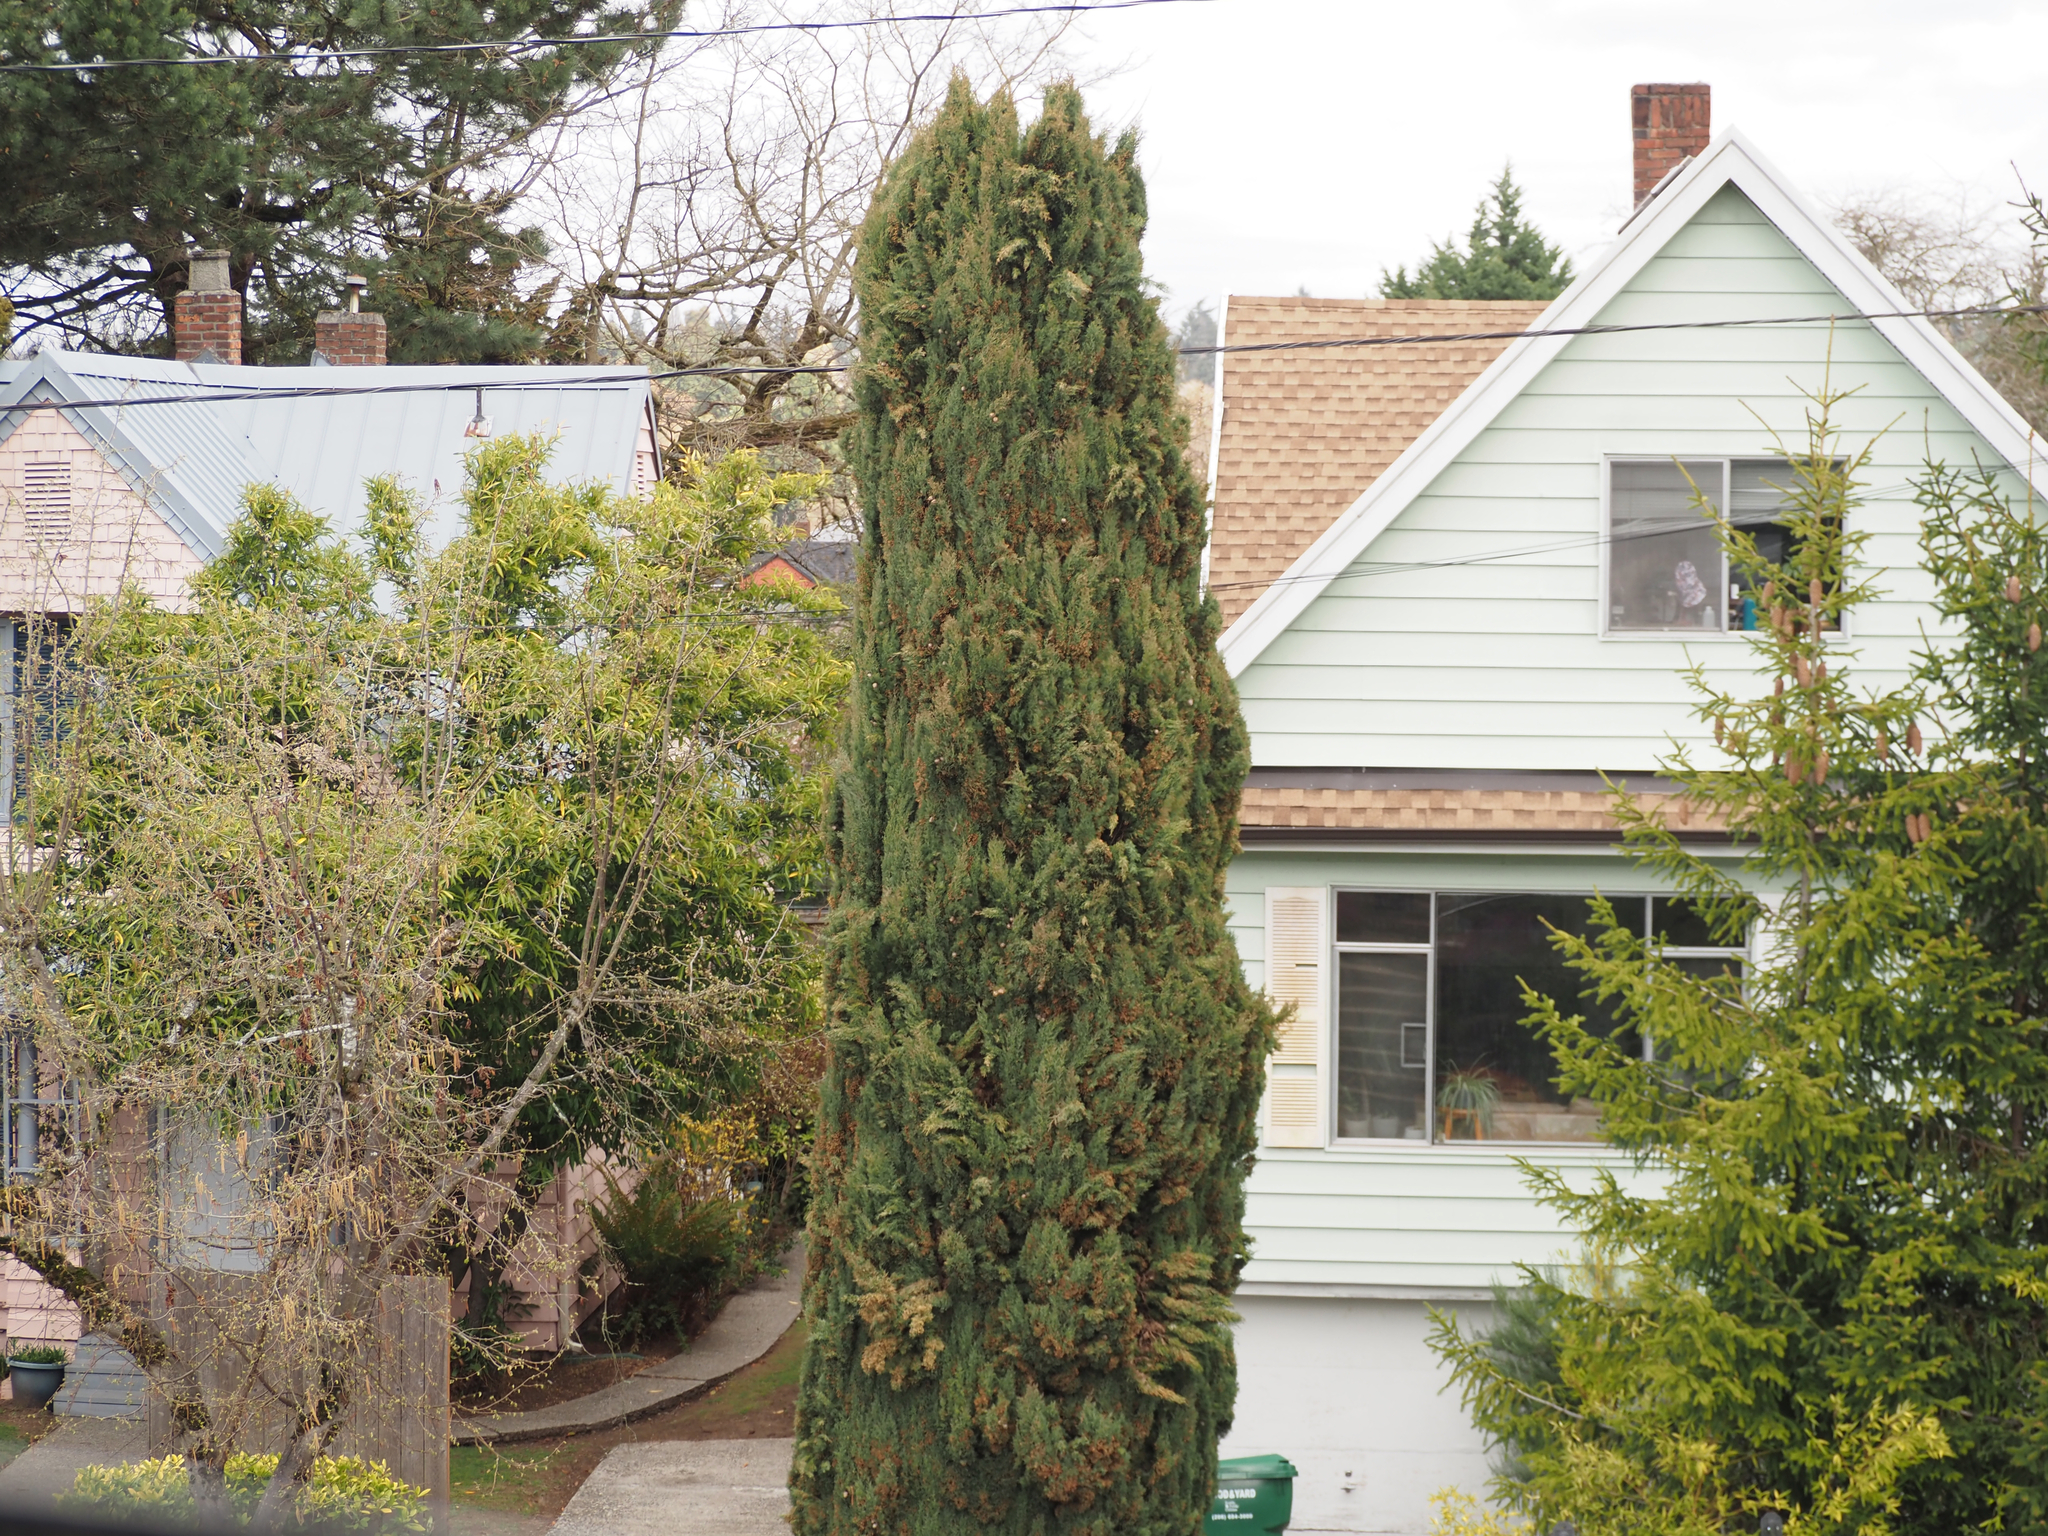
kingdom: Animalia
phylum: Chordata
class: Mammalia
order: Carnivora
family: Procyonidae
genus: Procyon
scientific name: Procyon lotor
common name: Raccoon
